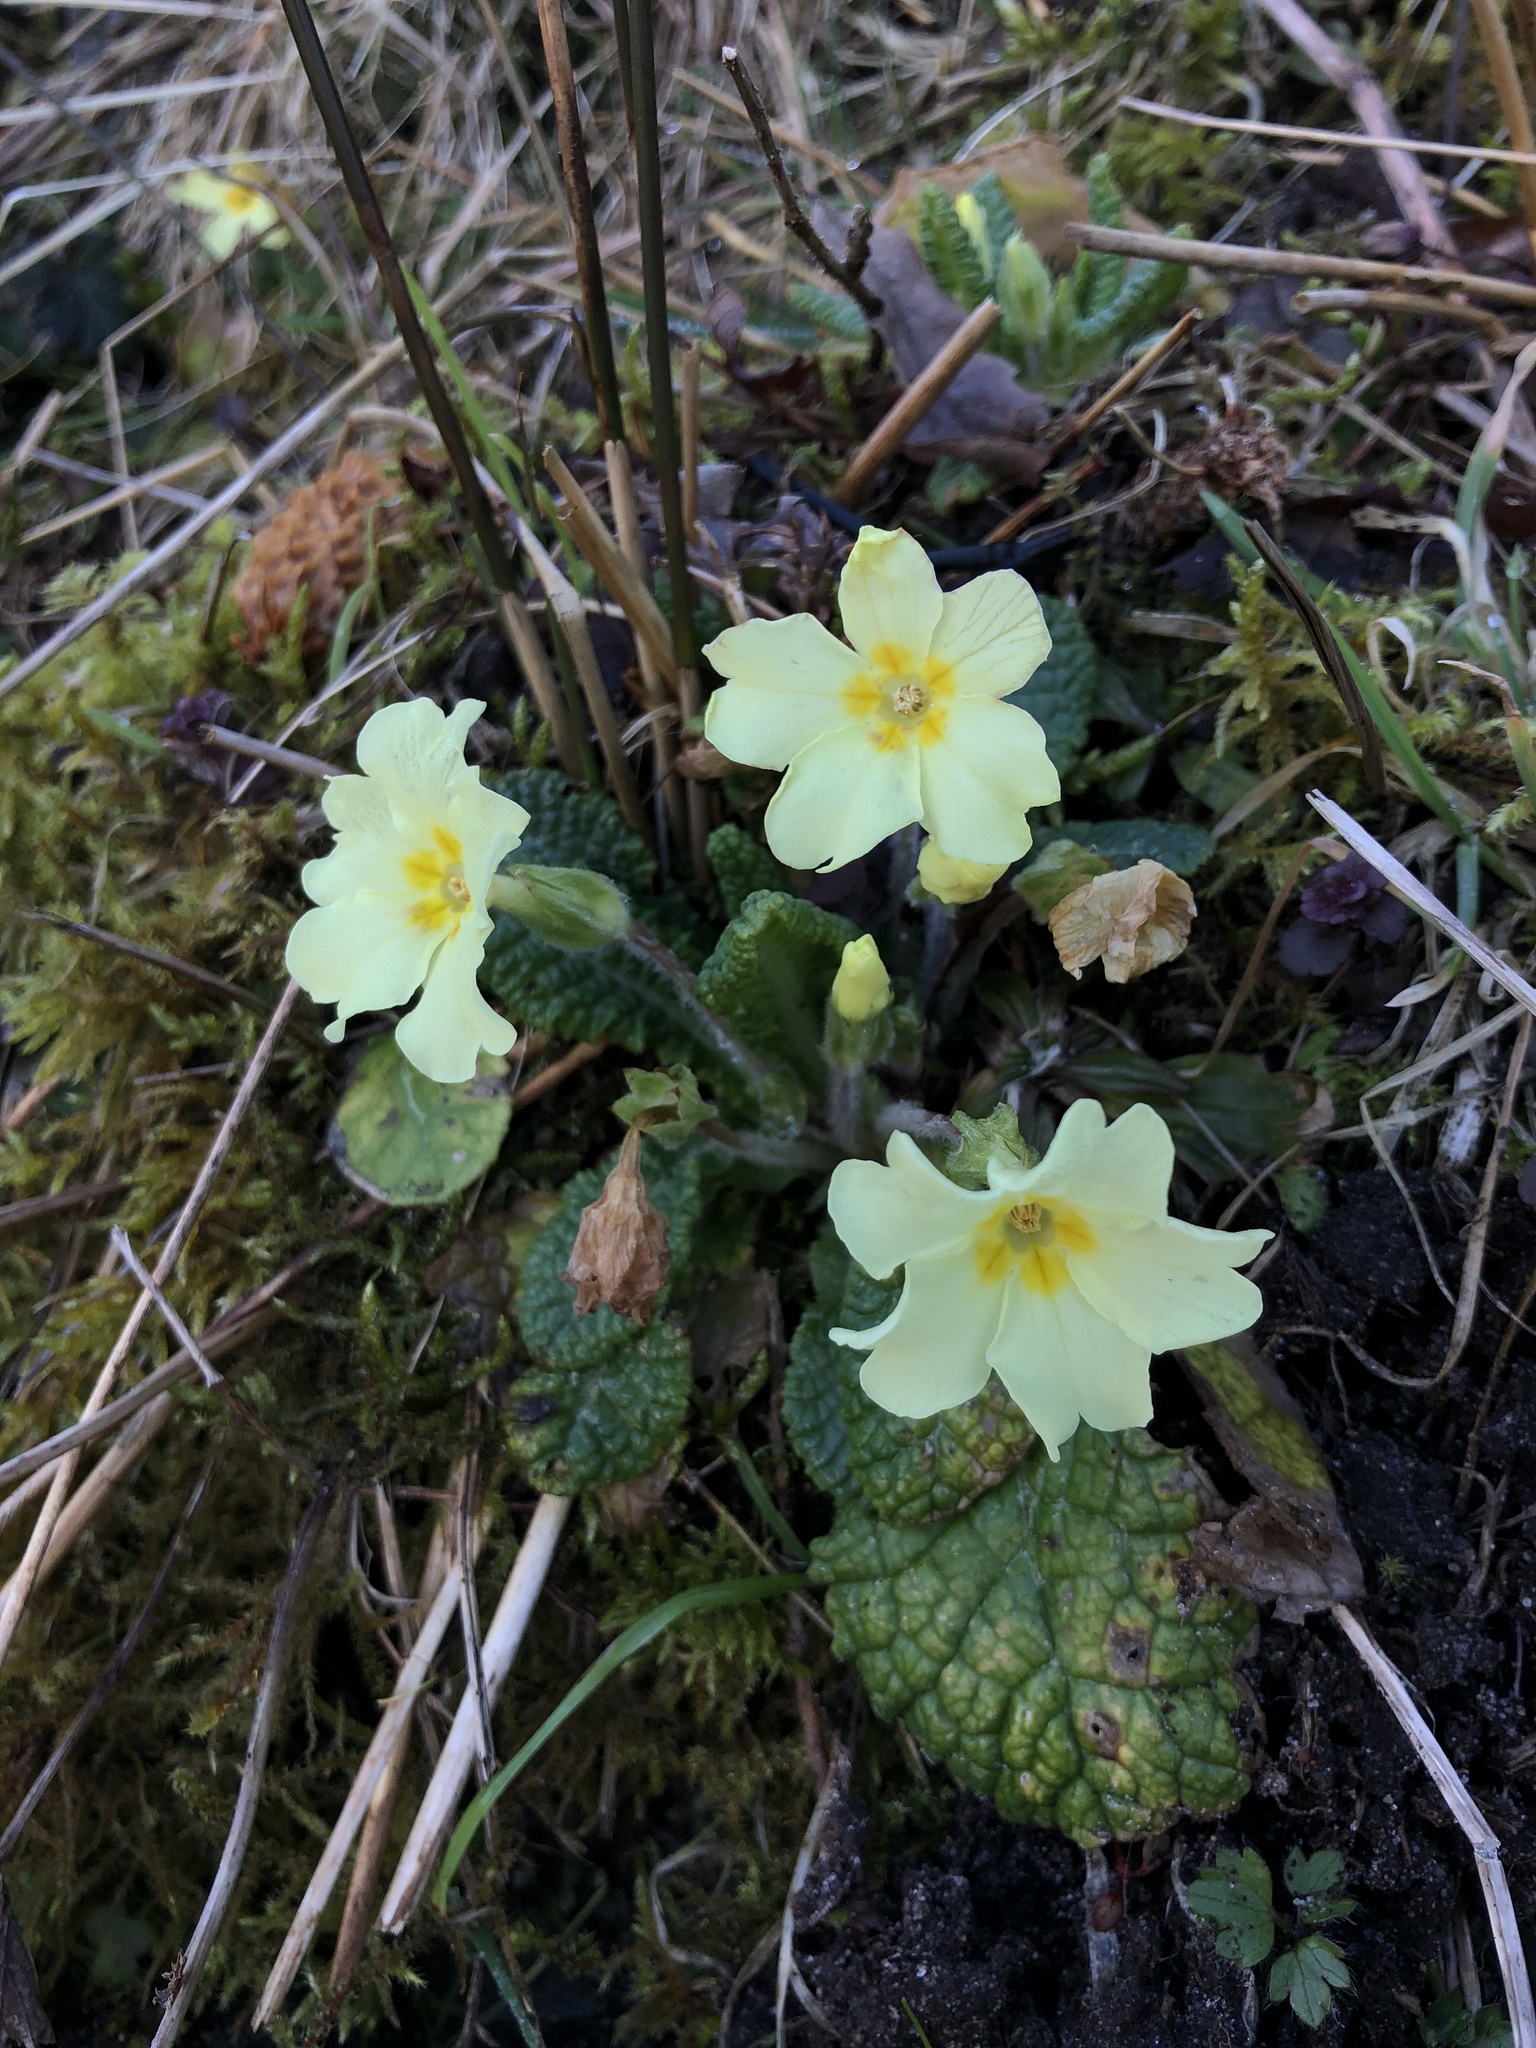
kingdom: Plantae
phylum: Tracheophyta
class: Magnoliopsida
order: Ericales
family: Primulaceae
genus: Primula
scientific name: Primula vulgaris
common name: Primrose
